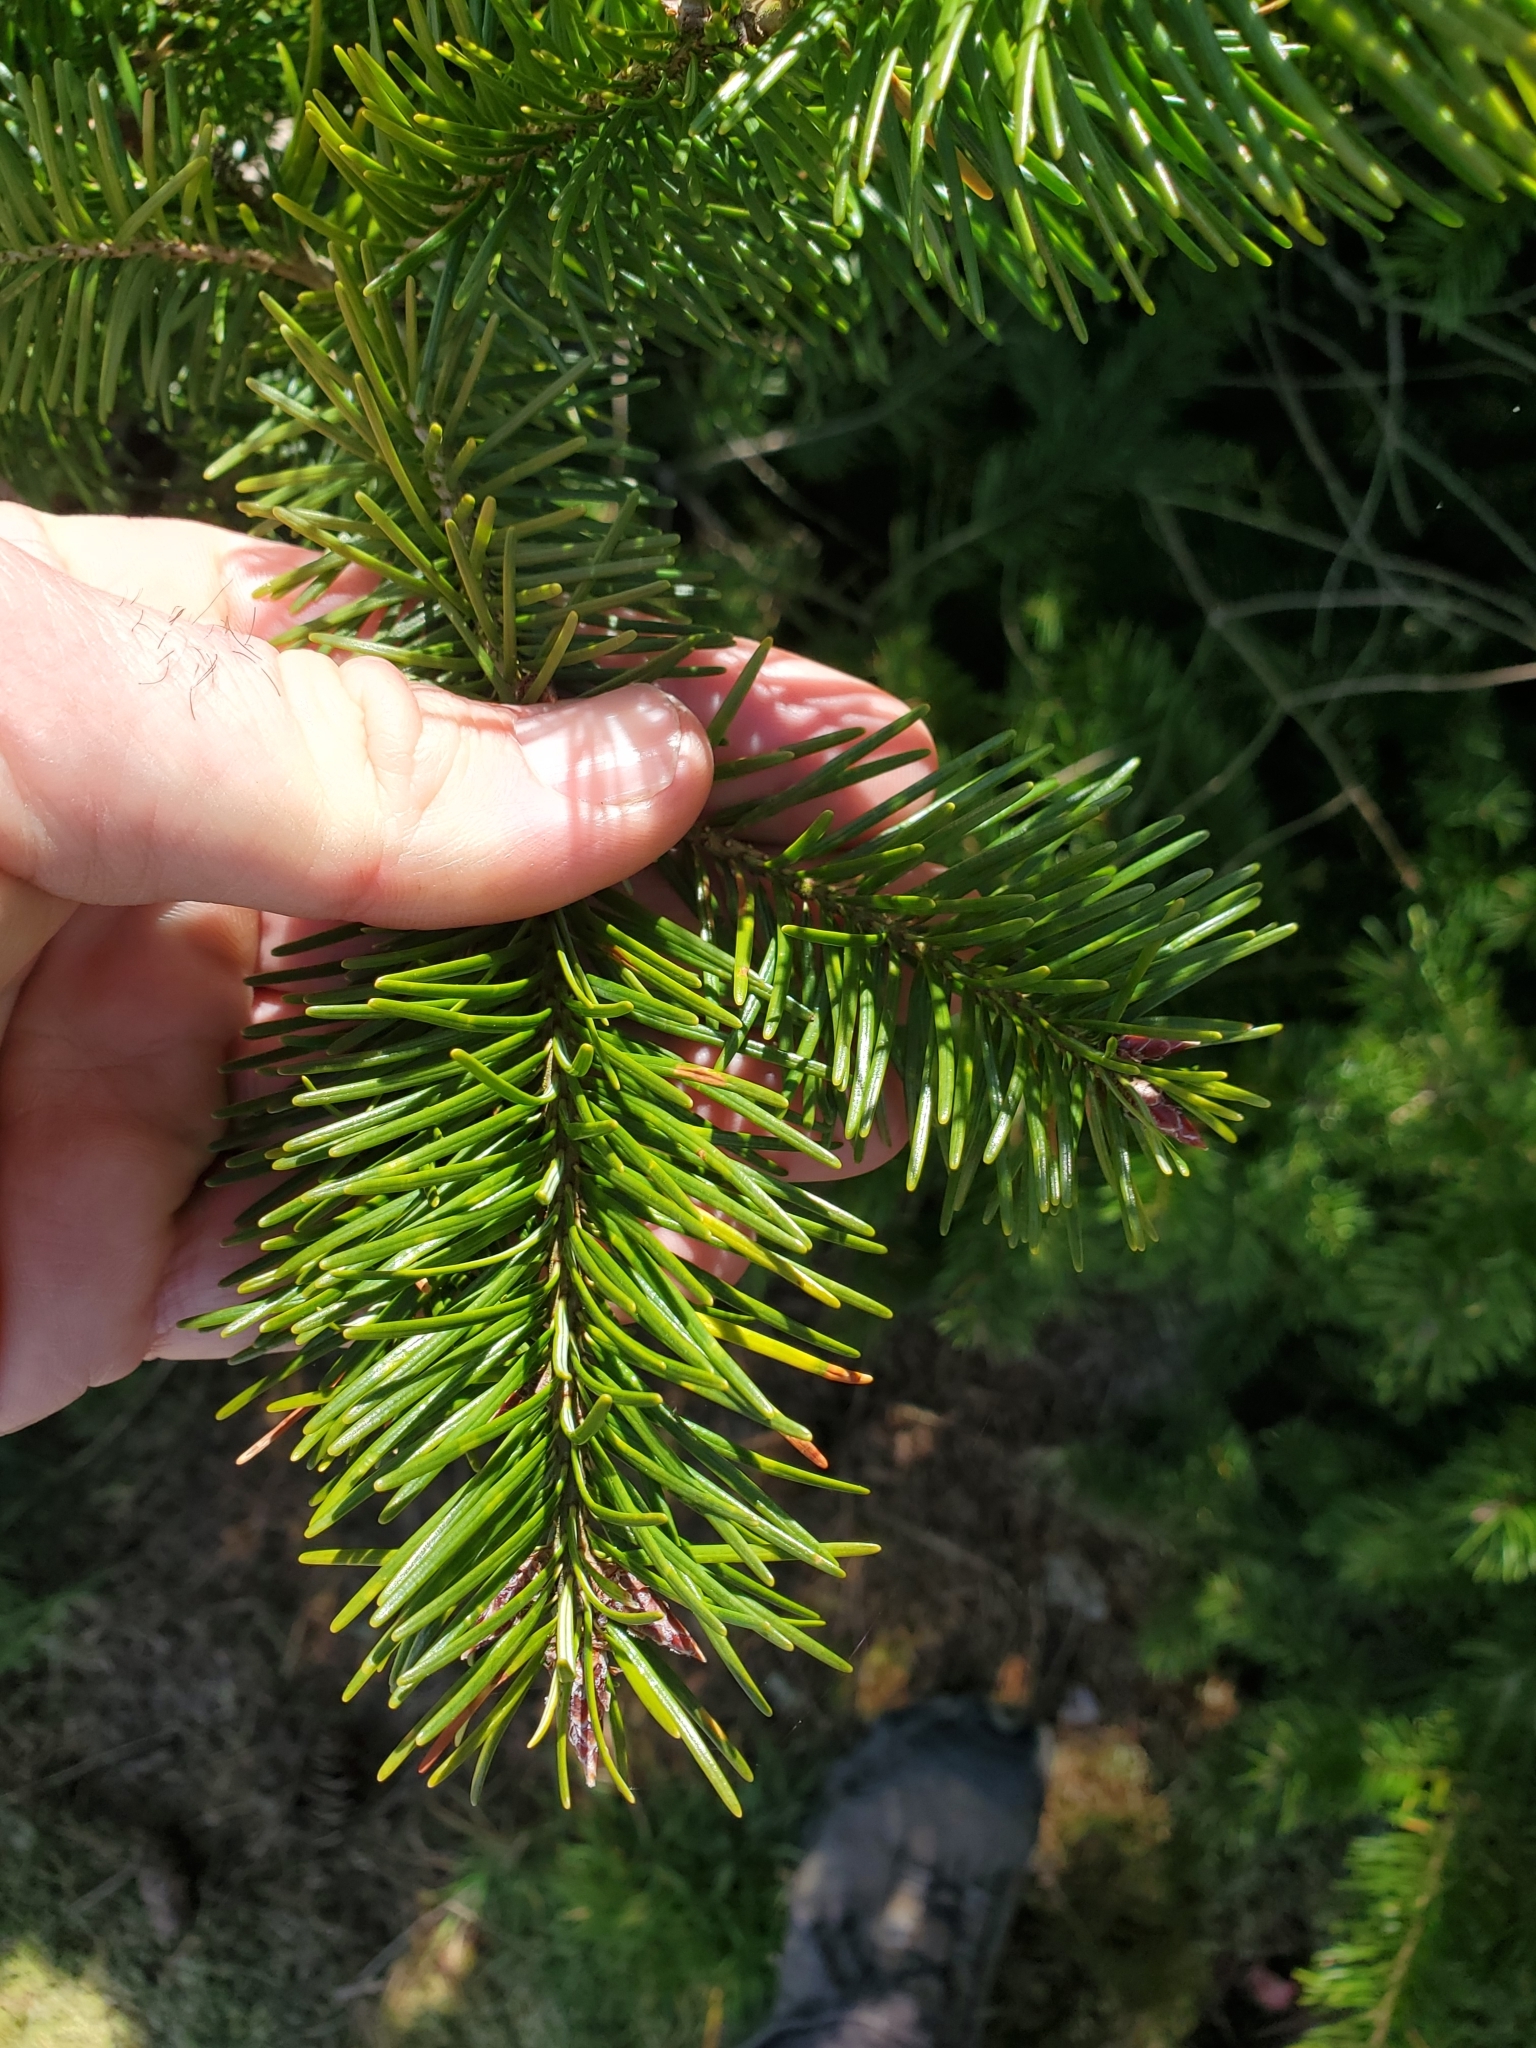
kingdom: Plantae
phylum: Tracheophyta
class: Pinopsida
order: Pinales
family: Pinaceae
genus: Pseudotsuga
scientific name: Pseudotsuga menziesii
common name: Douglas fir
